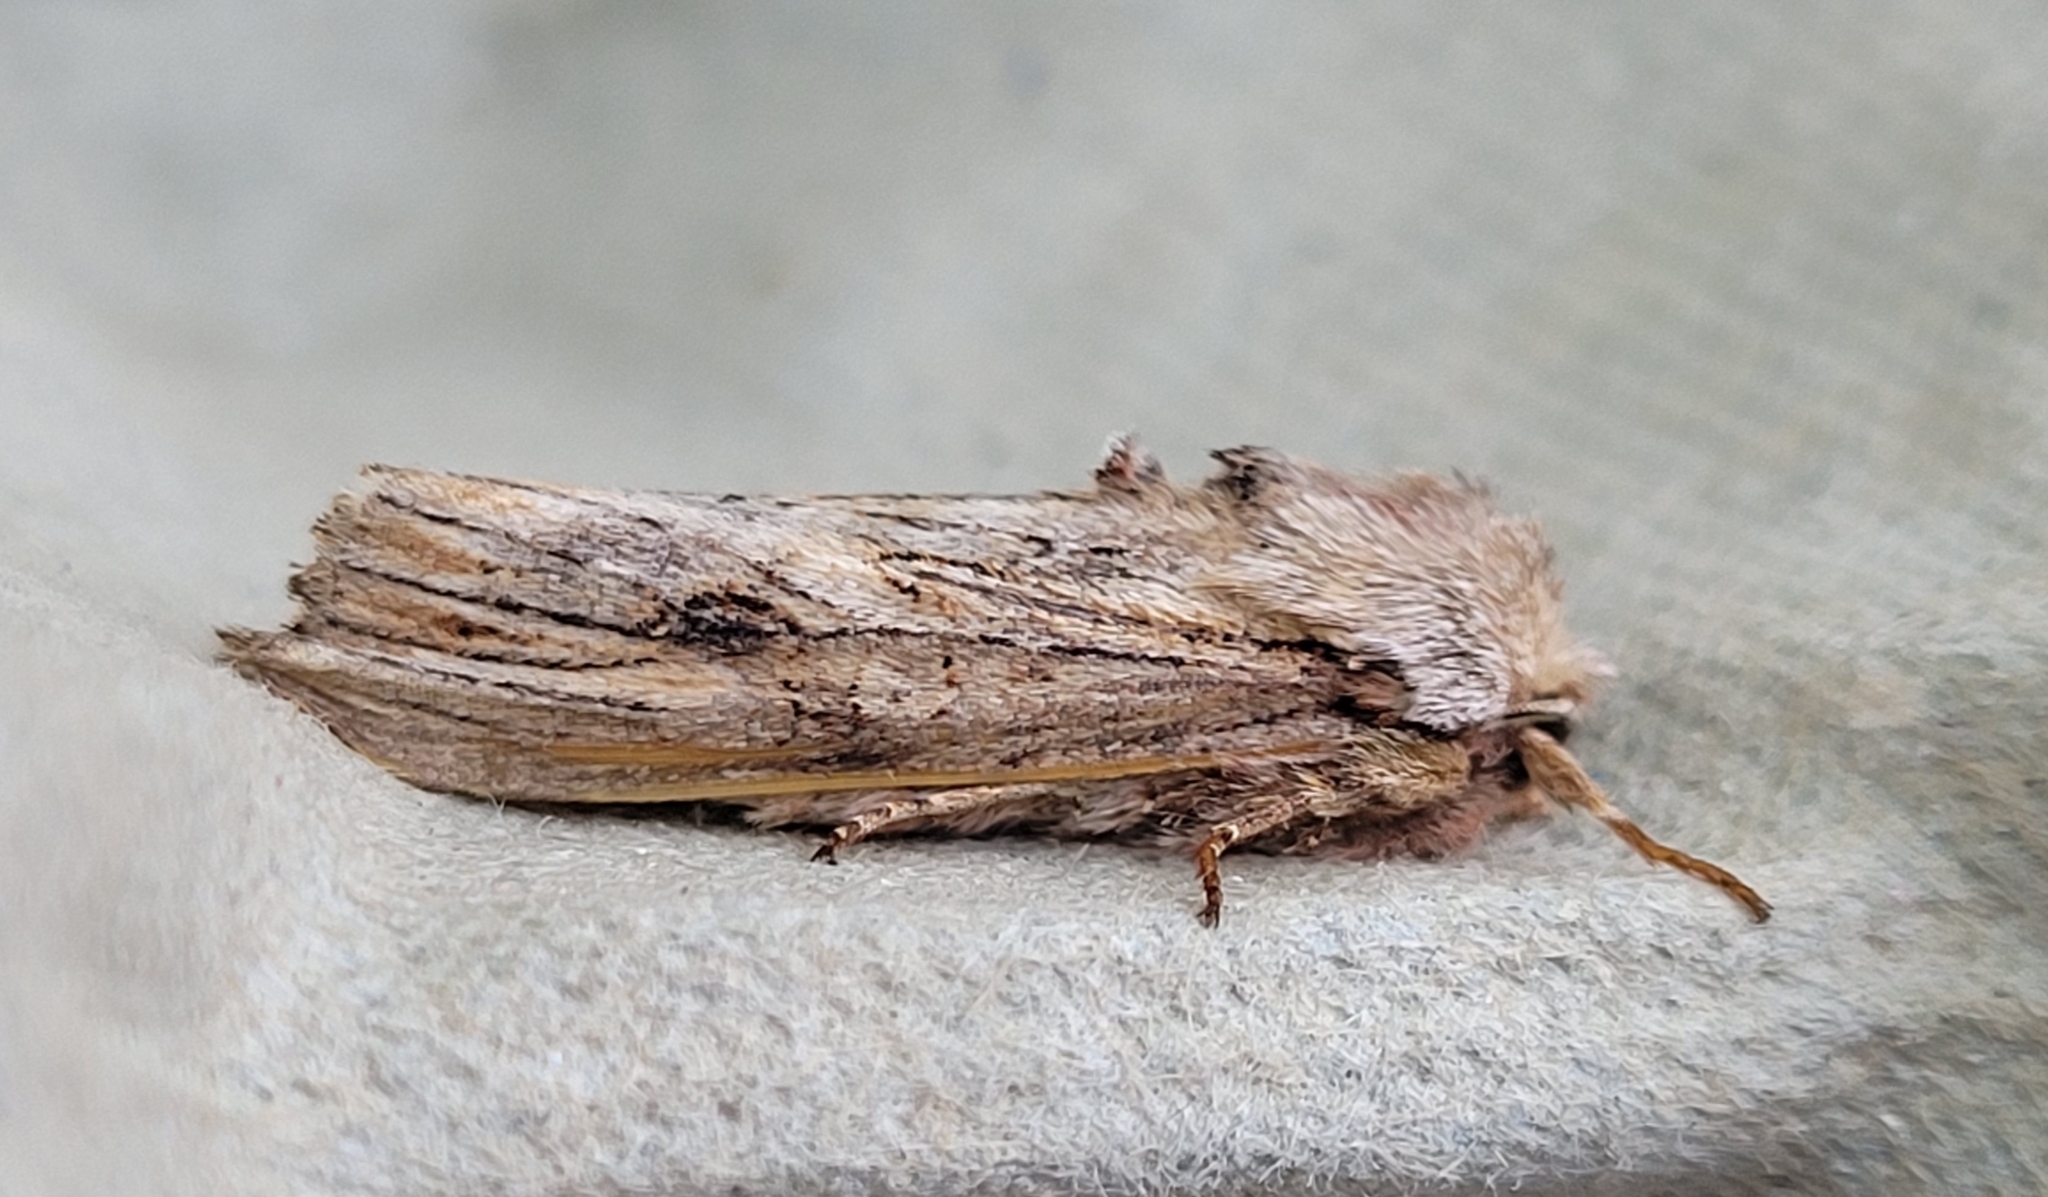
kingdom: Animalia
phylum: Arthropoda
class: Insecta
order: Lepidoptera
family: Noctuidae
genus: Egira
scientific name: Egira conspicillaris
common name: Silver cloud
